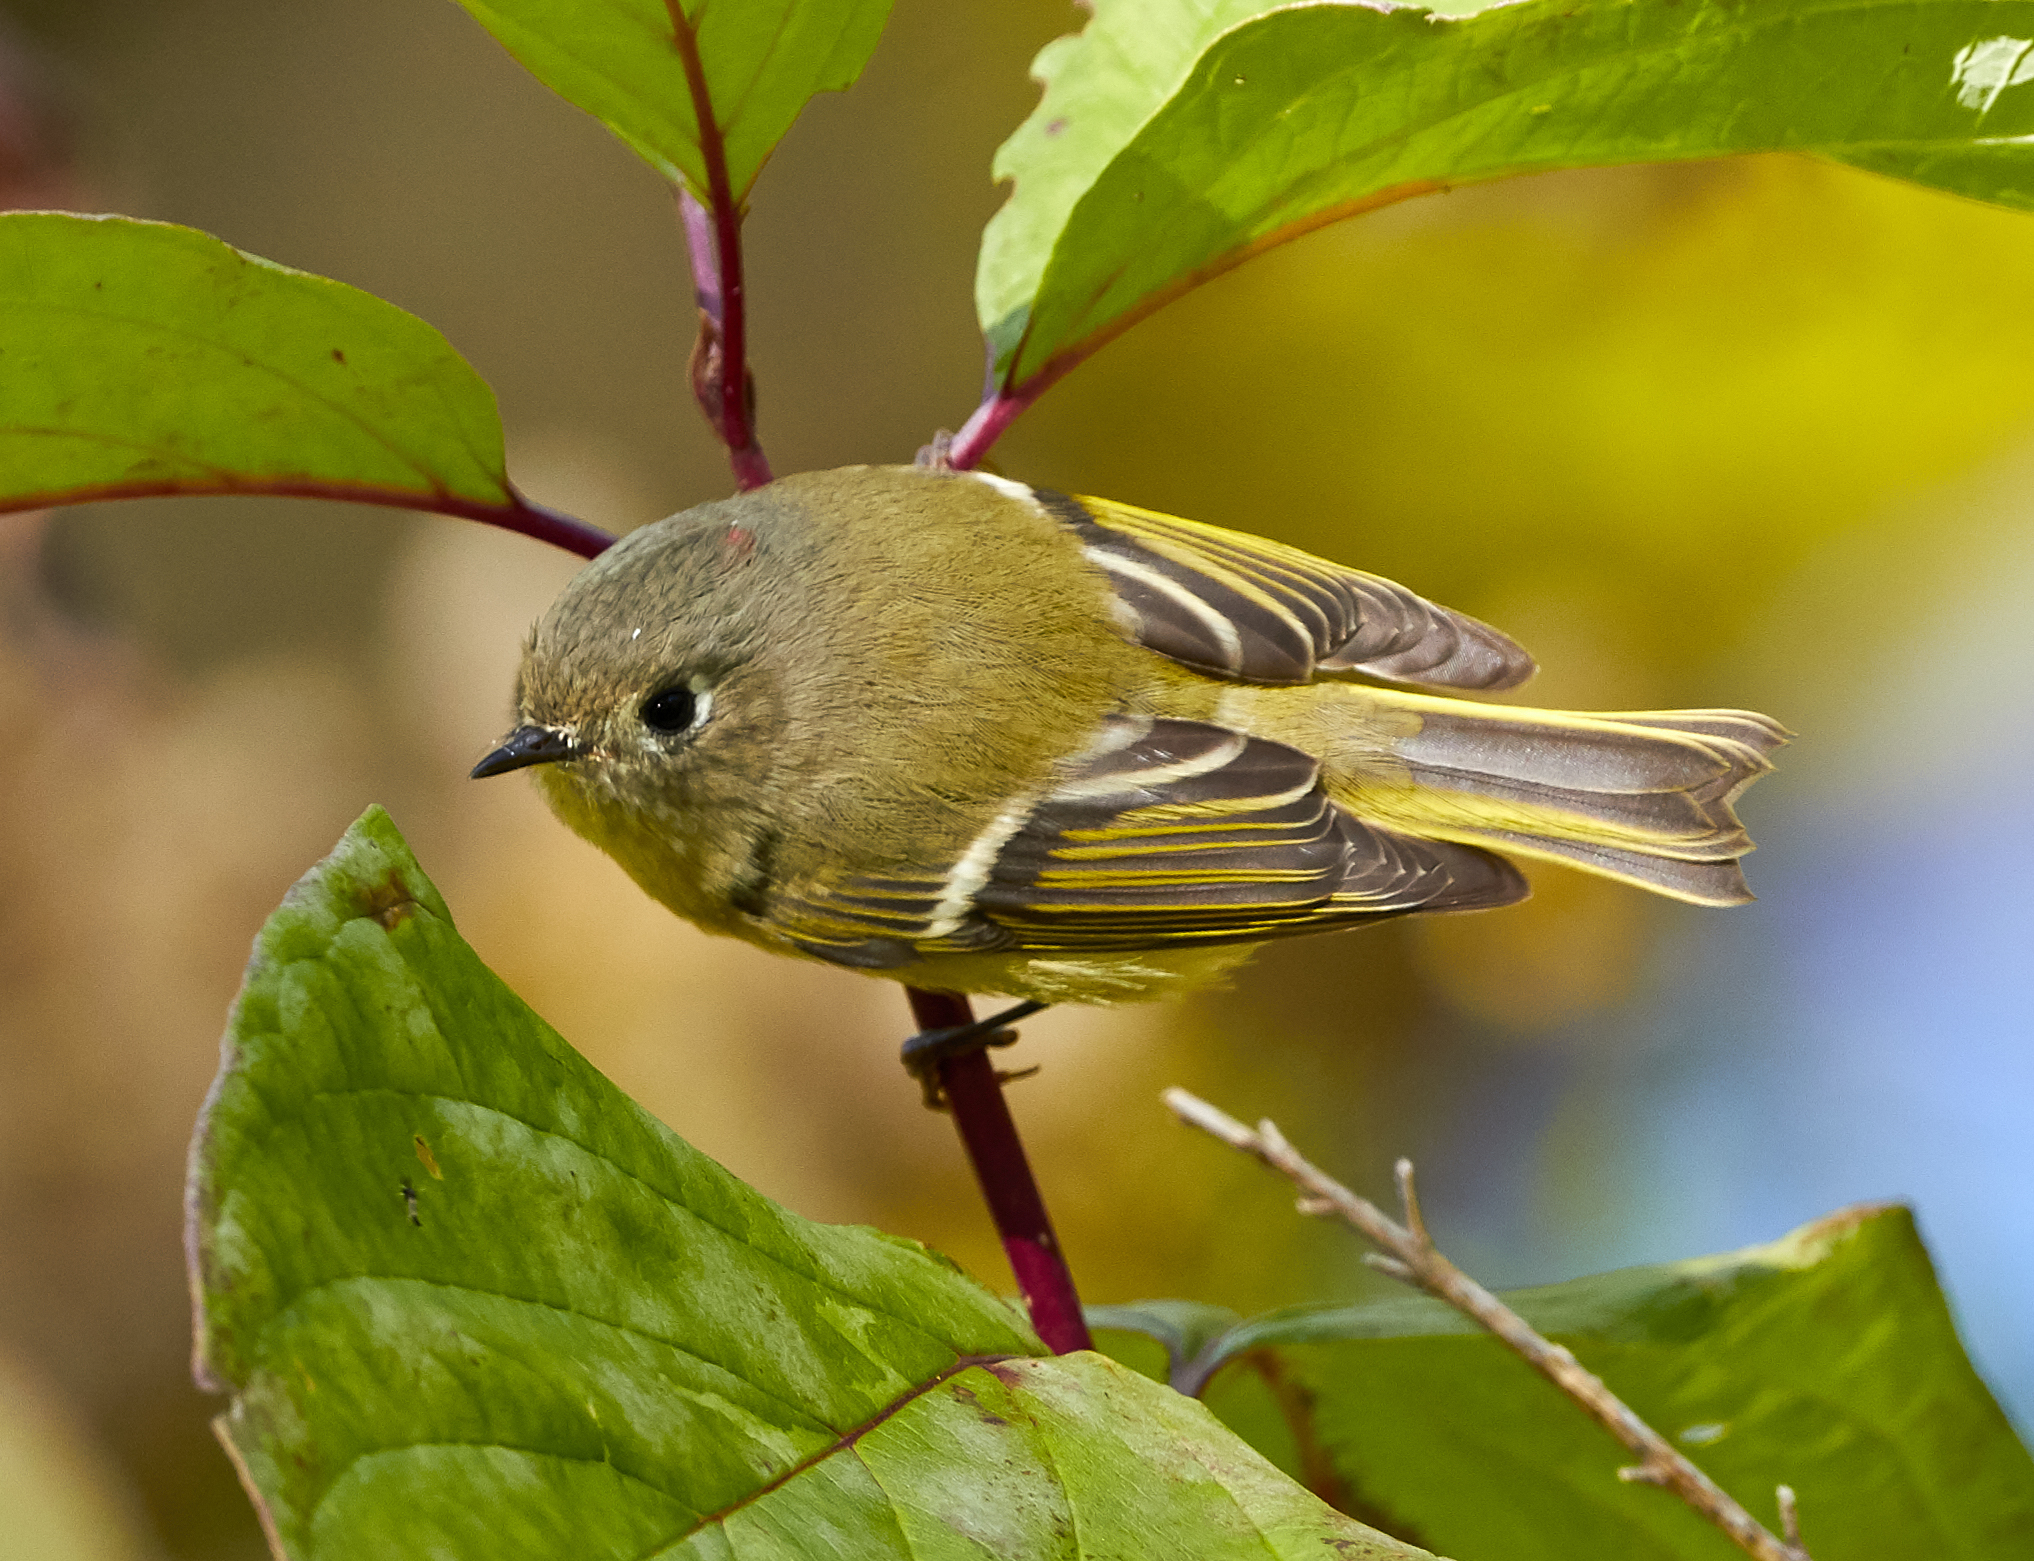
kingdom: Animalia
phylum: Chordata
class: Aves
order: Passeriformes
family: Regulidae
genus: Regulus
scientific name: Regulus calendula
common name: Ruby-crowned kinglet
